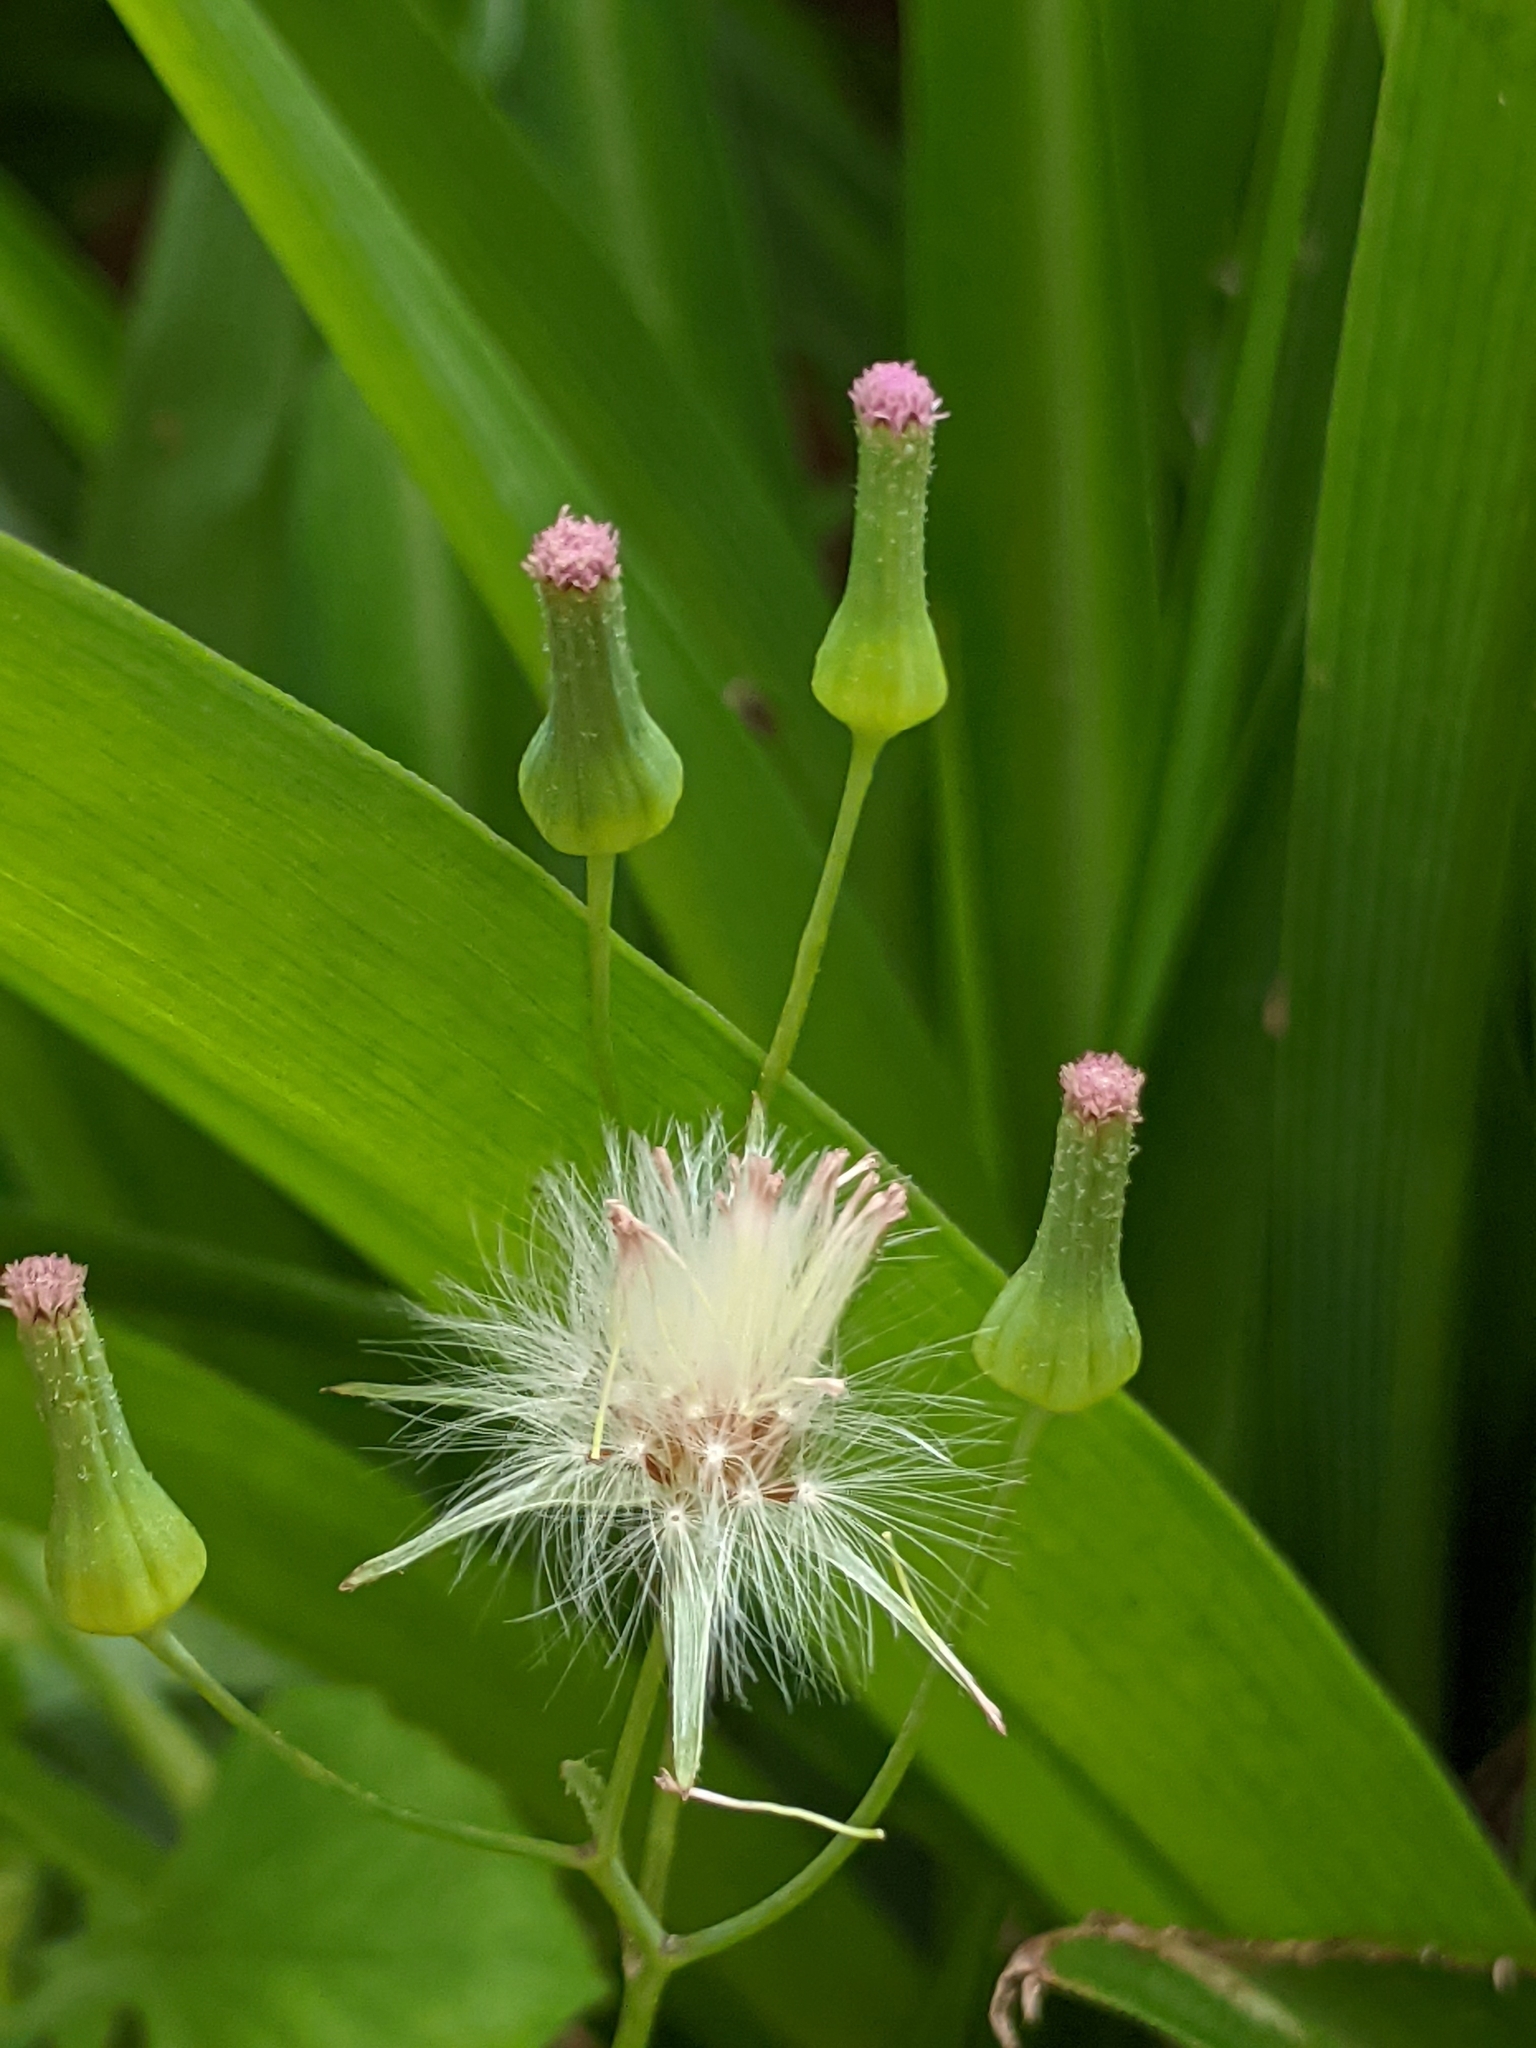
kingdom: Plantae
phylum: Tracheophyta
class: Magnoliopsida
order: Asterales
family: Asteraceae
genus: Emilia
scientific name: Emilia sonchifolia
